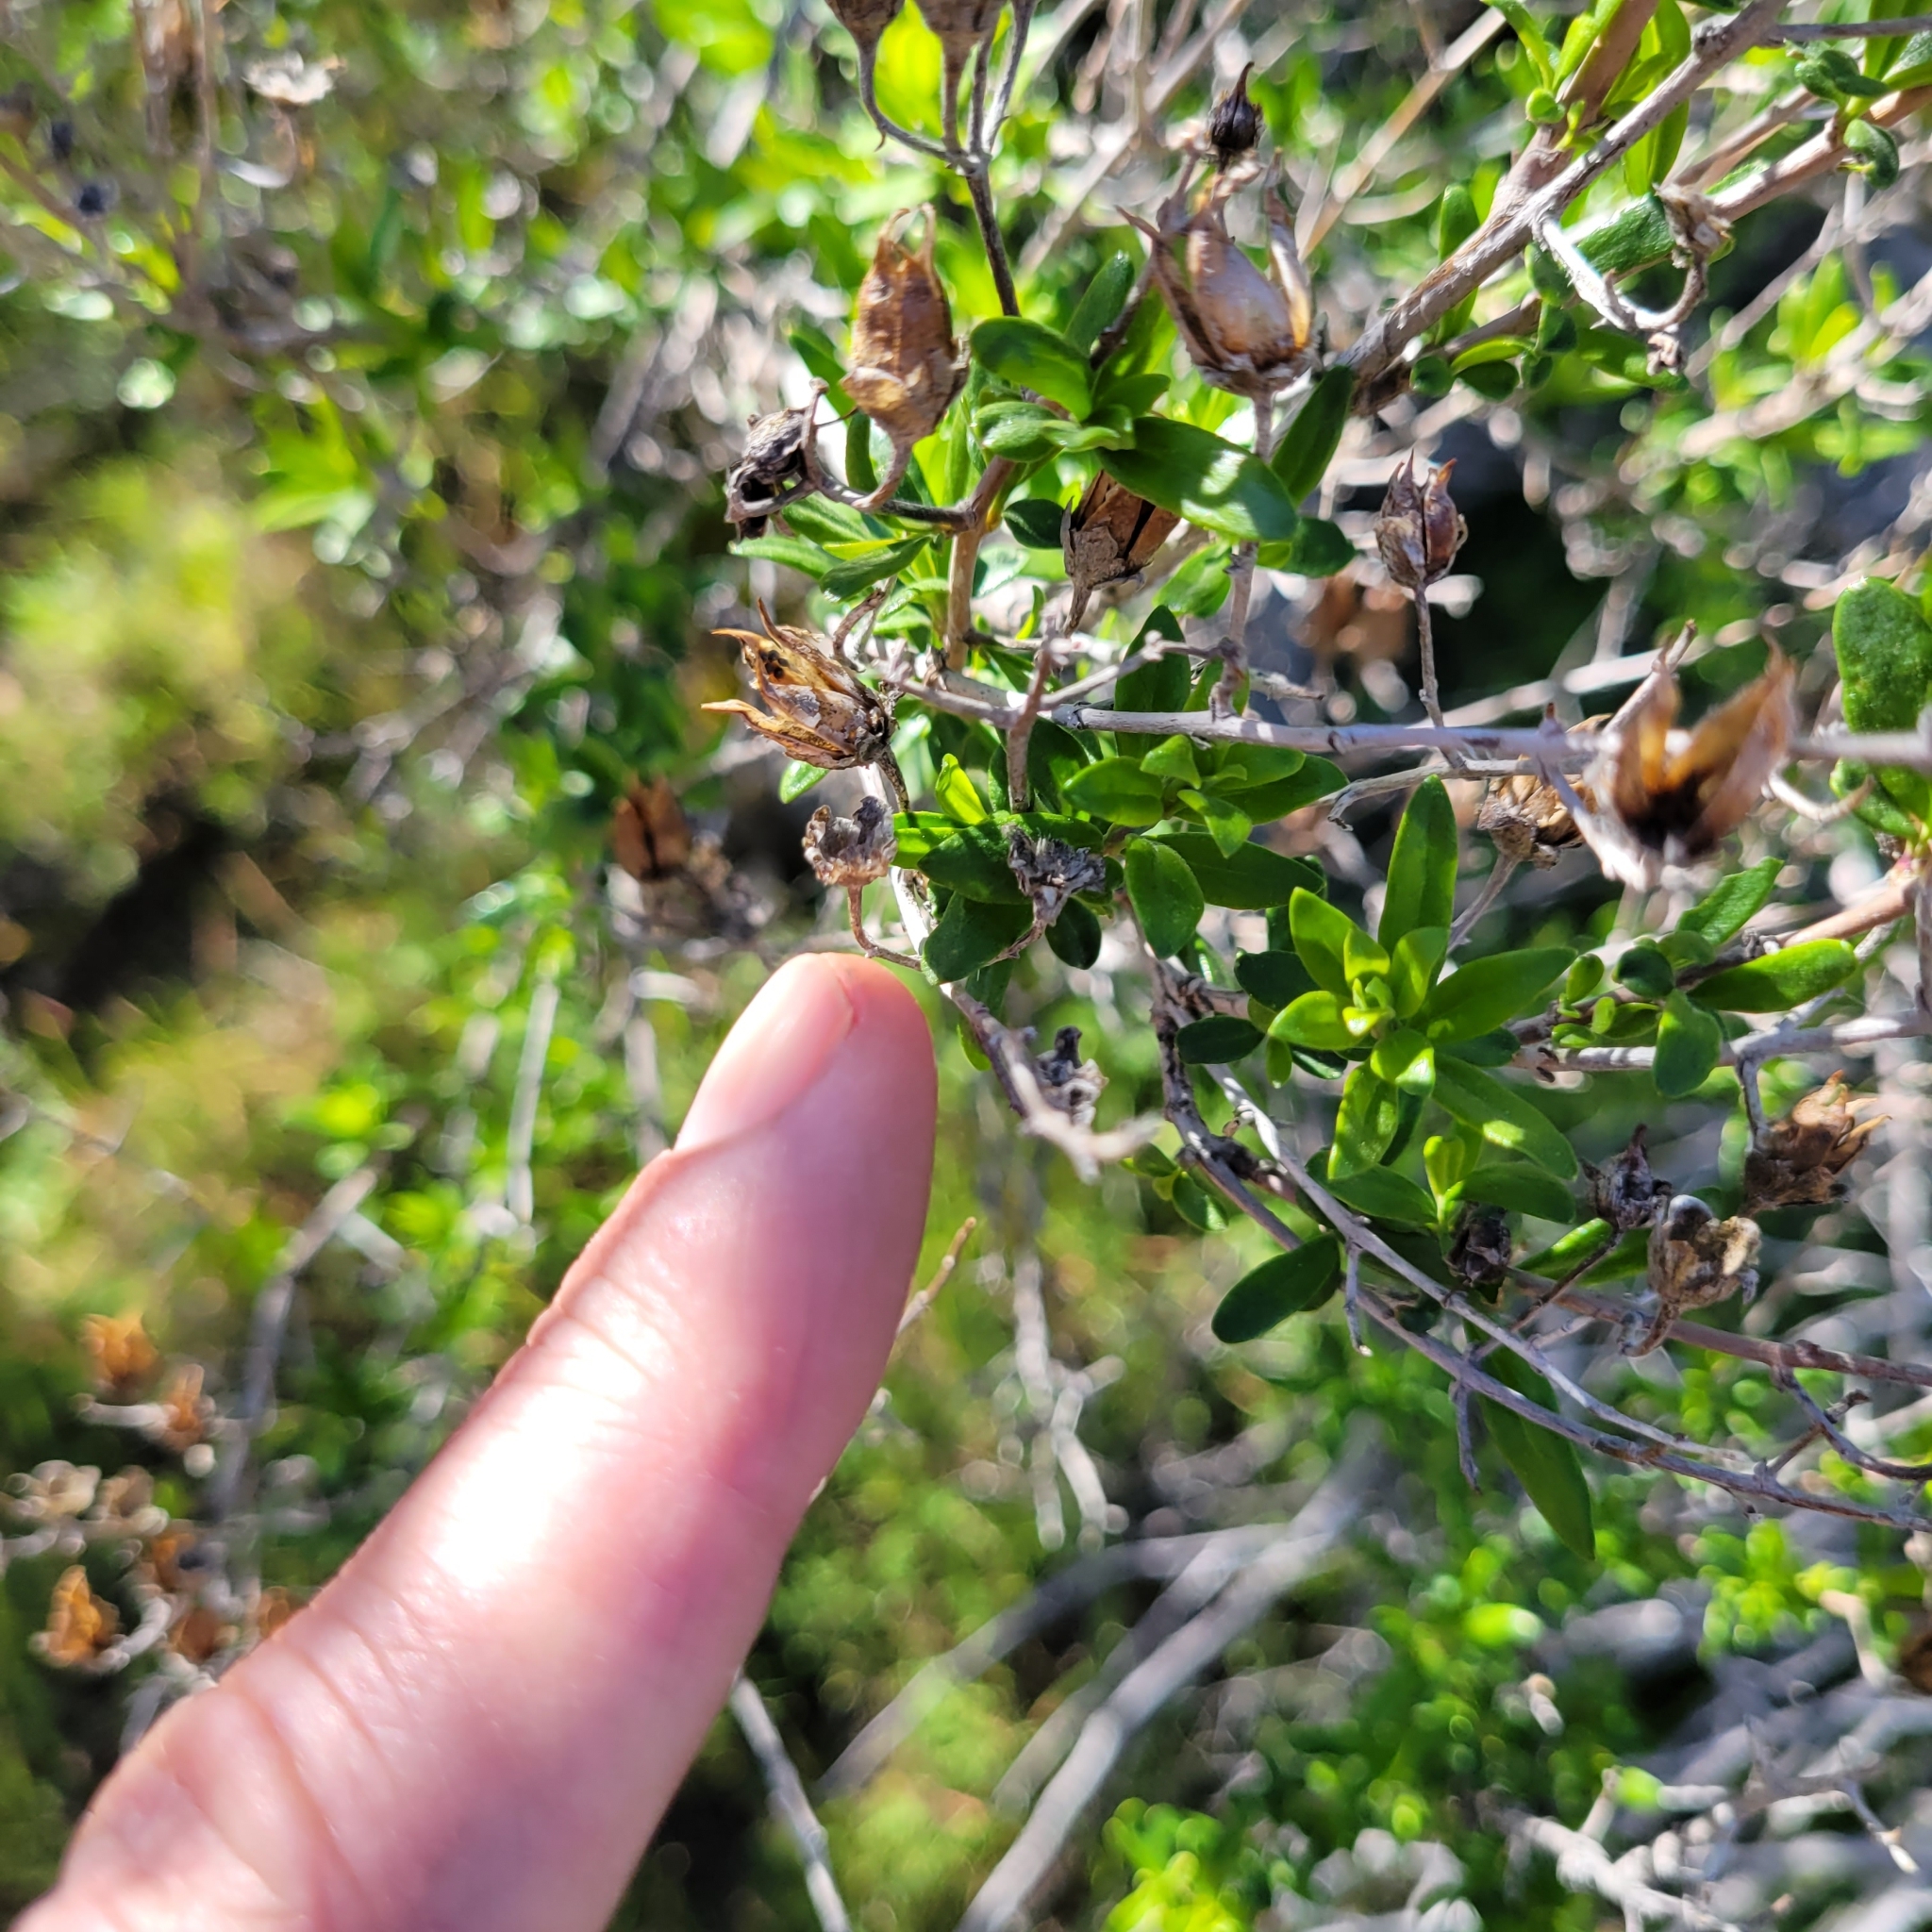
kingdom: Plantae
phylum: Tracheophyta
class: Magnoliopsida
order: Lamiales
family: Plantaginaceae
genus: Keckiella
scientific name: Keckiella antirrhinoides
